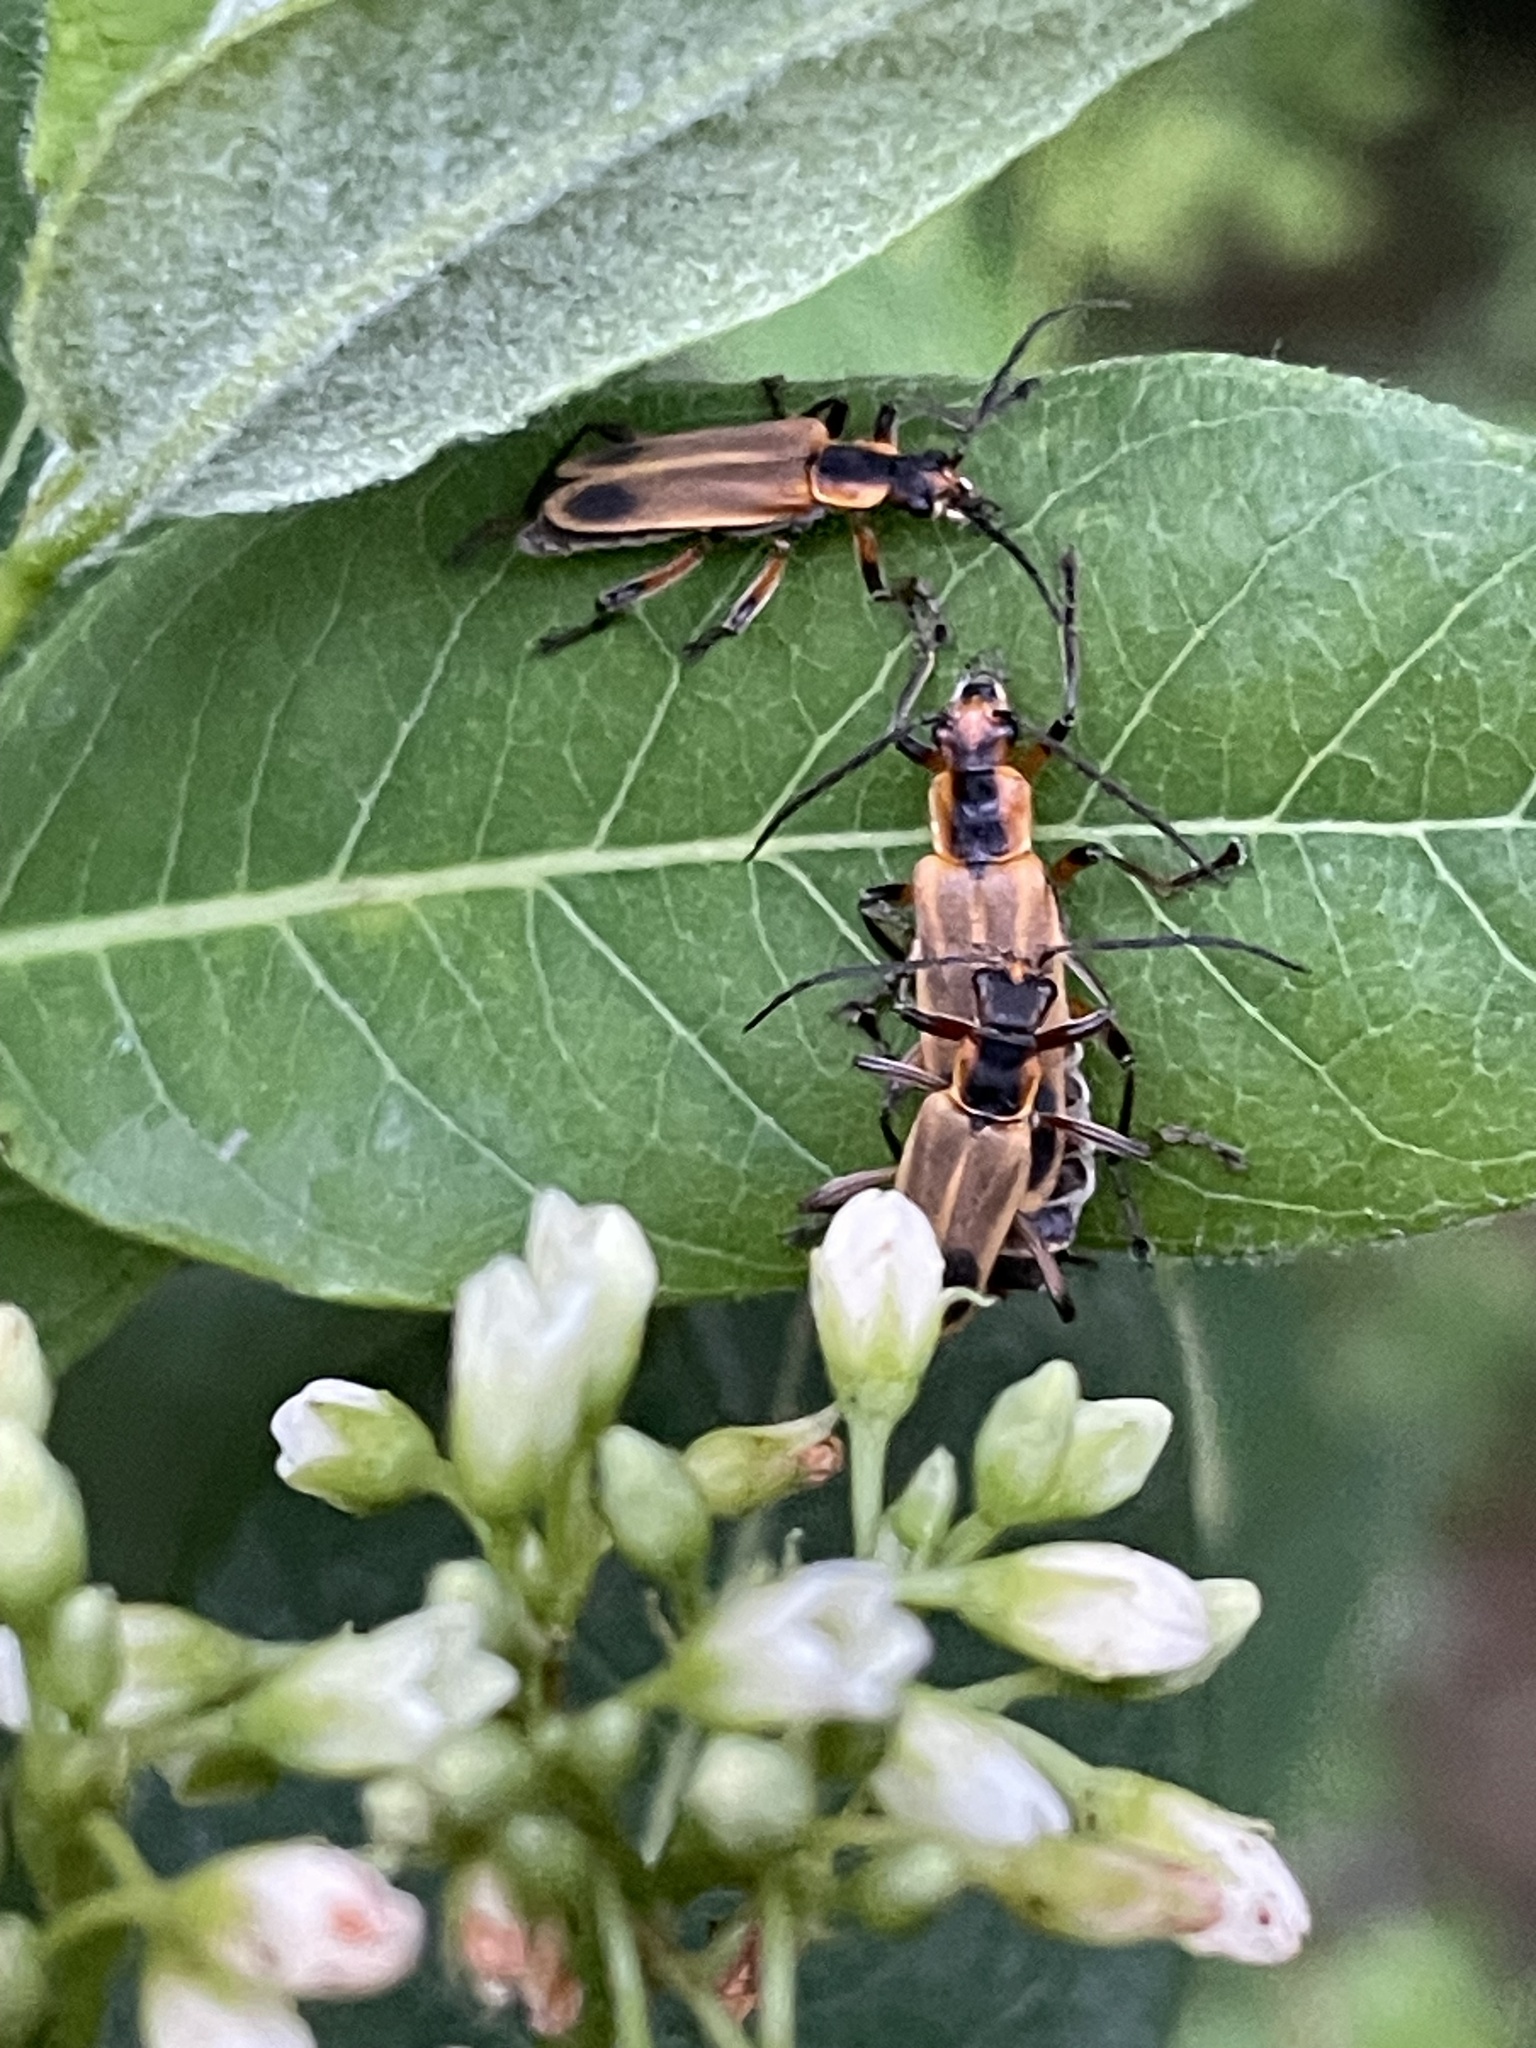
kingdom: Animalia
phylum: Arthropoda
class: Insecta
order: Coleoptera
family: Cantharidae
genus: Chauliognathus
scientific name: Chauliognathus marginatus
